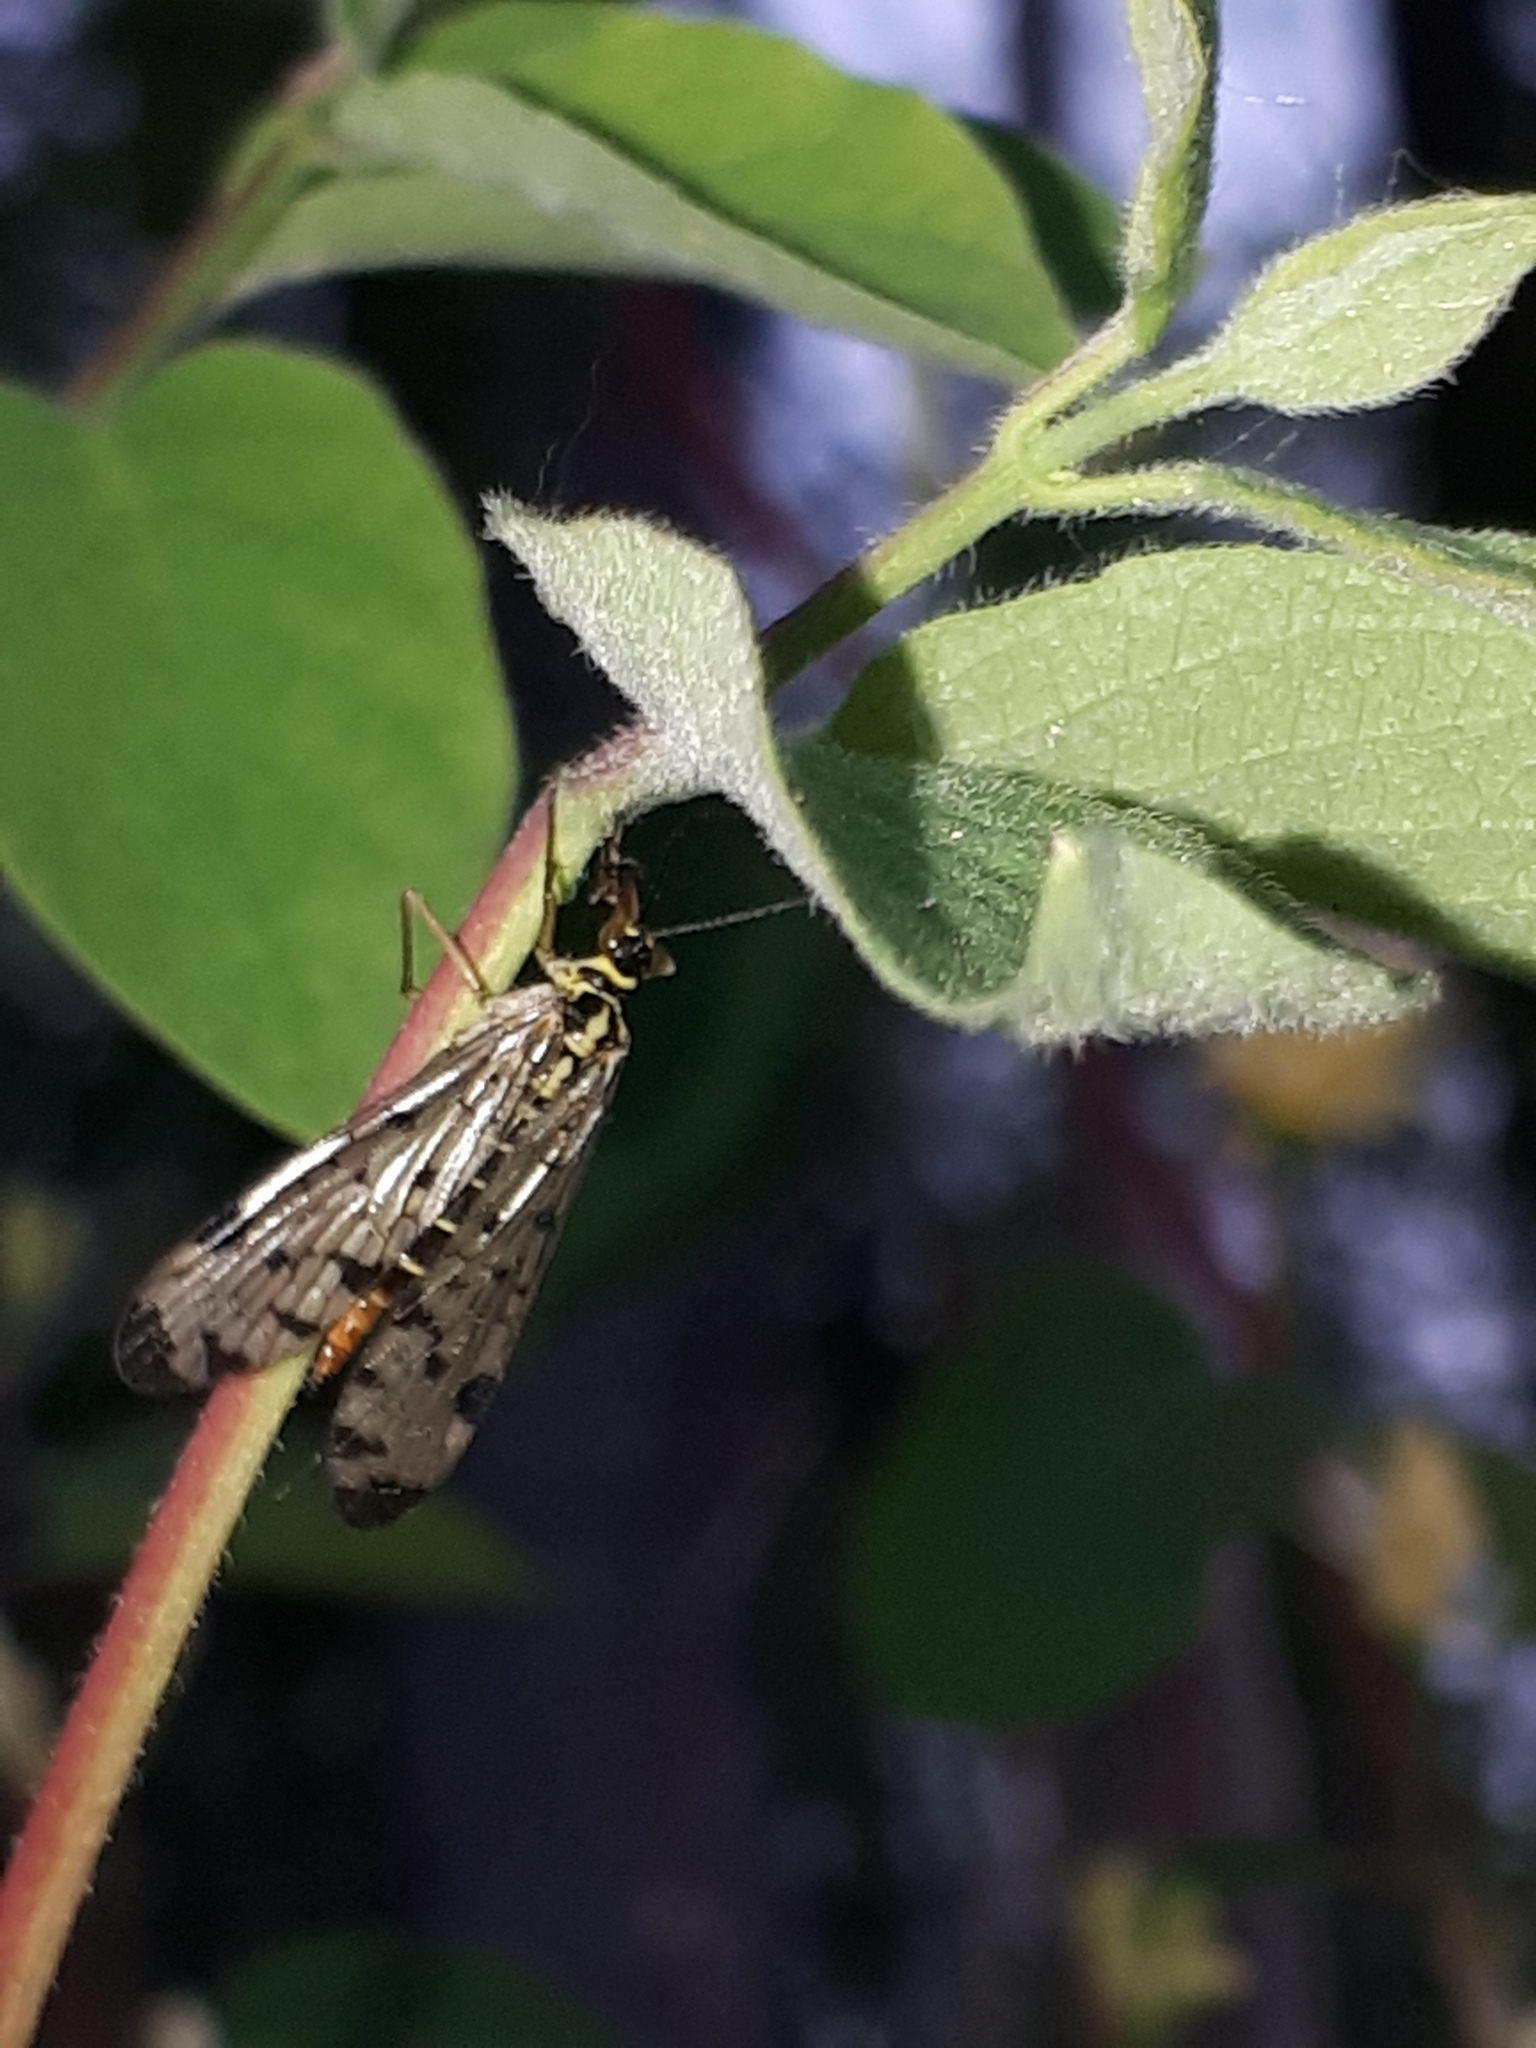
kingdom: Animalia
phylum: Arthropoda
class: Insecta
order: Mecoptera
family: Panorpidae
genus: Panorpa
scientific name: Panorpa germanica
